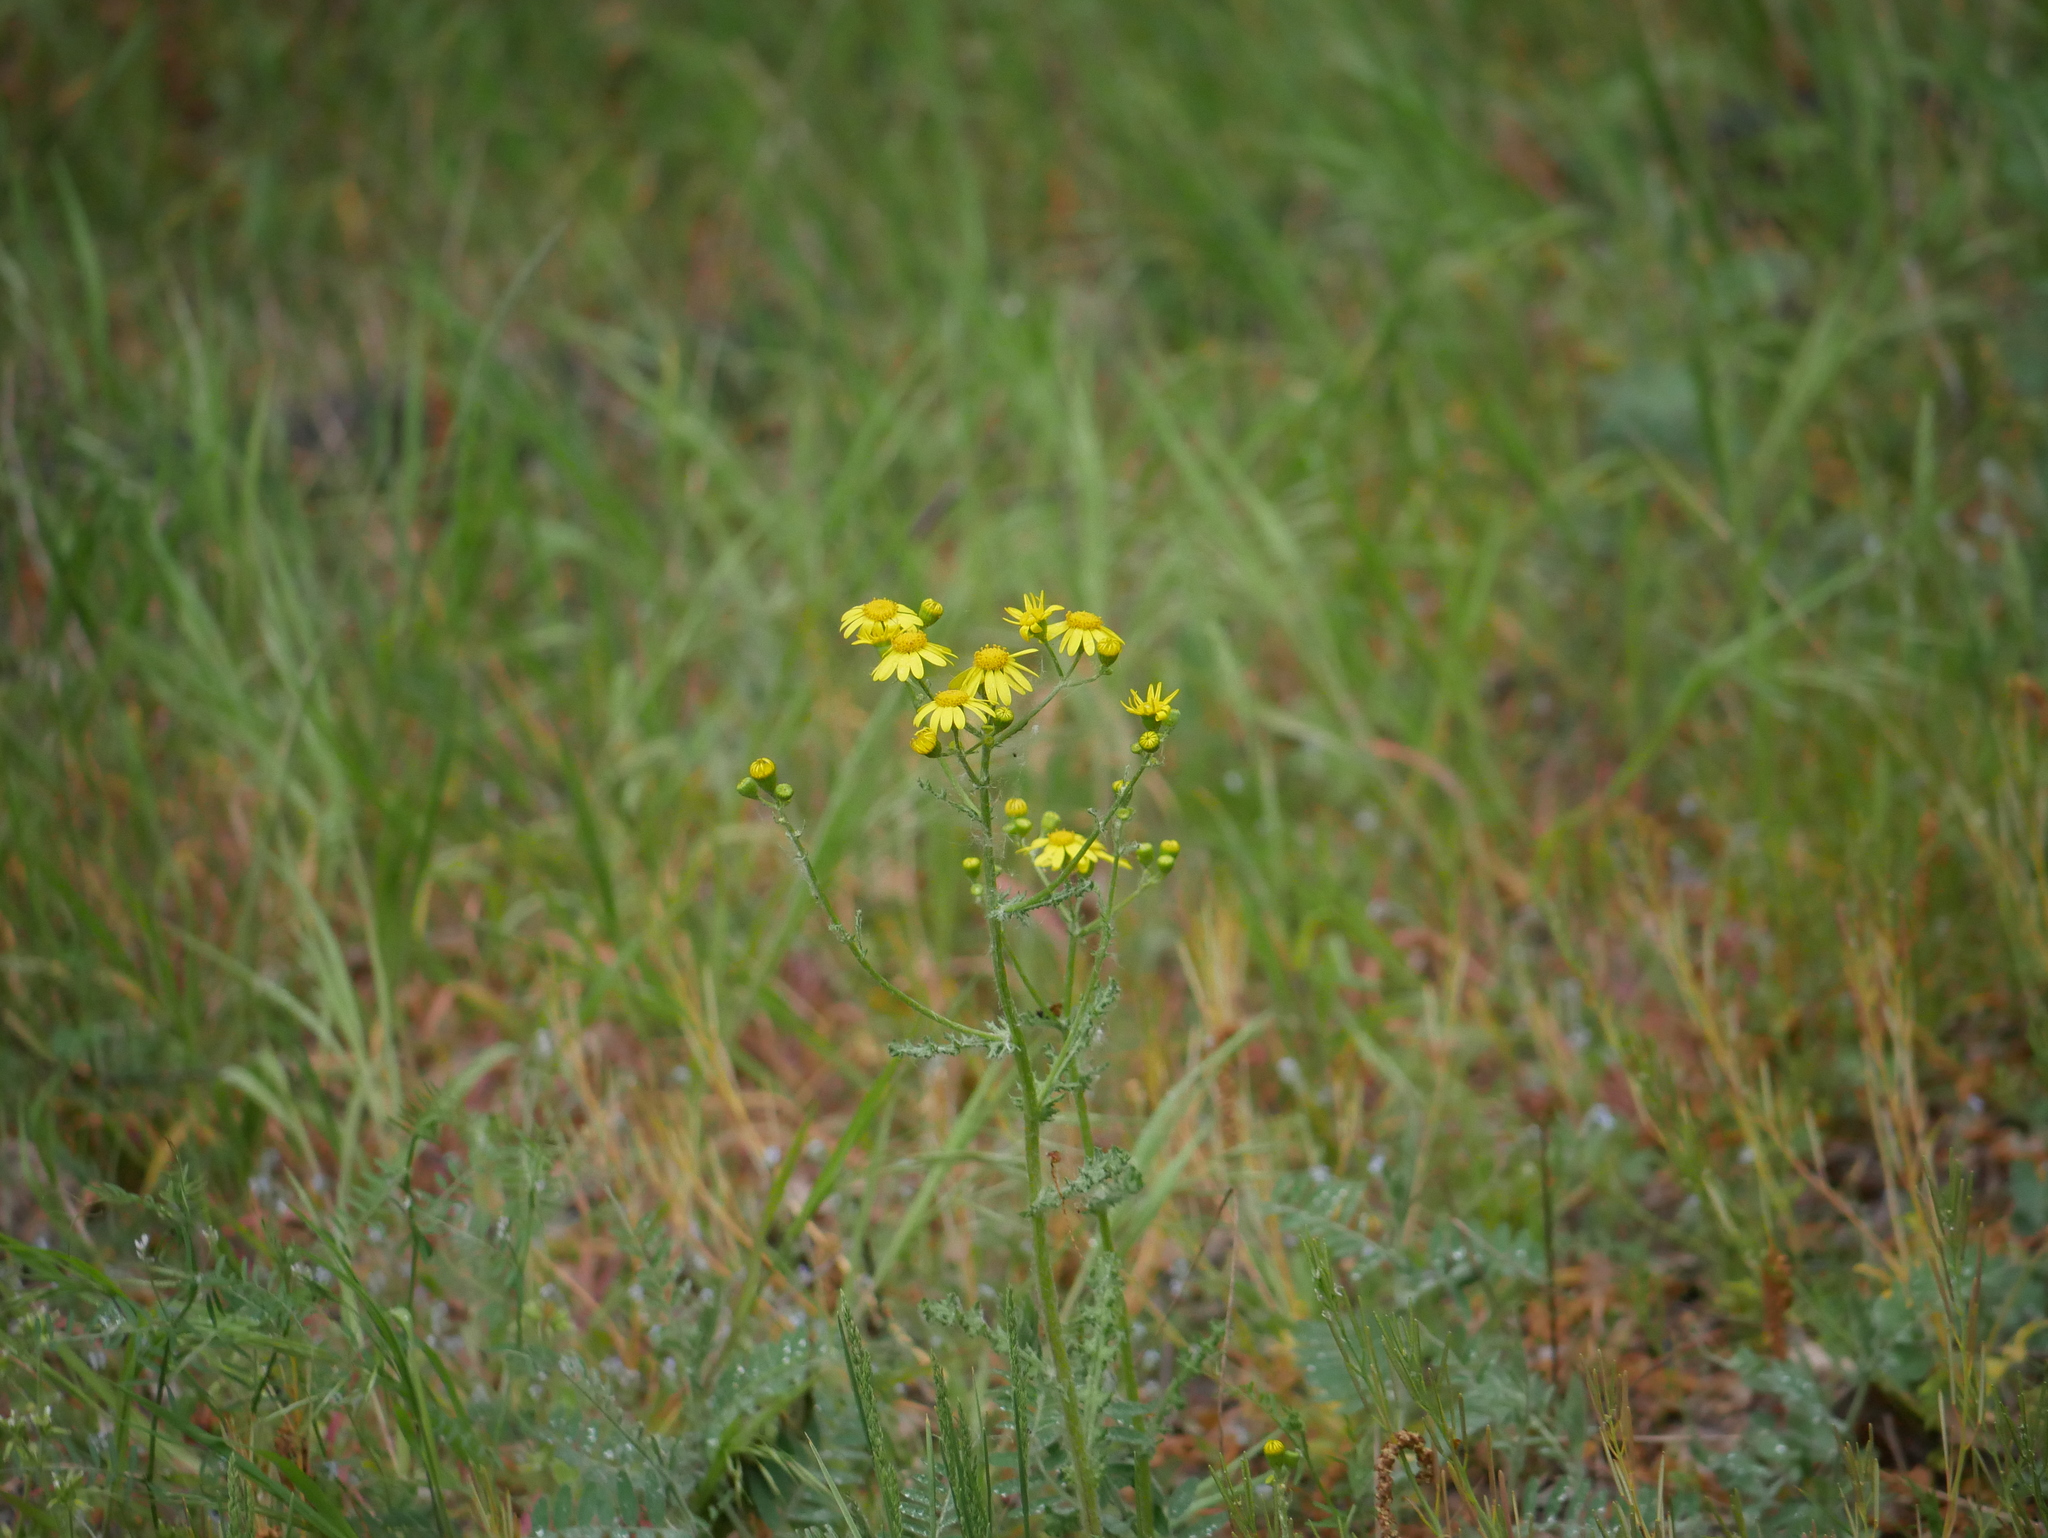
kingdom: Plantae
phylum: Tracheophyta
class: Magnoliopsida
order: Asterales
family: Asteraceae
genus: Senecio
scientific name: Senecio vernalis
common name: Eastern groundsel
